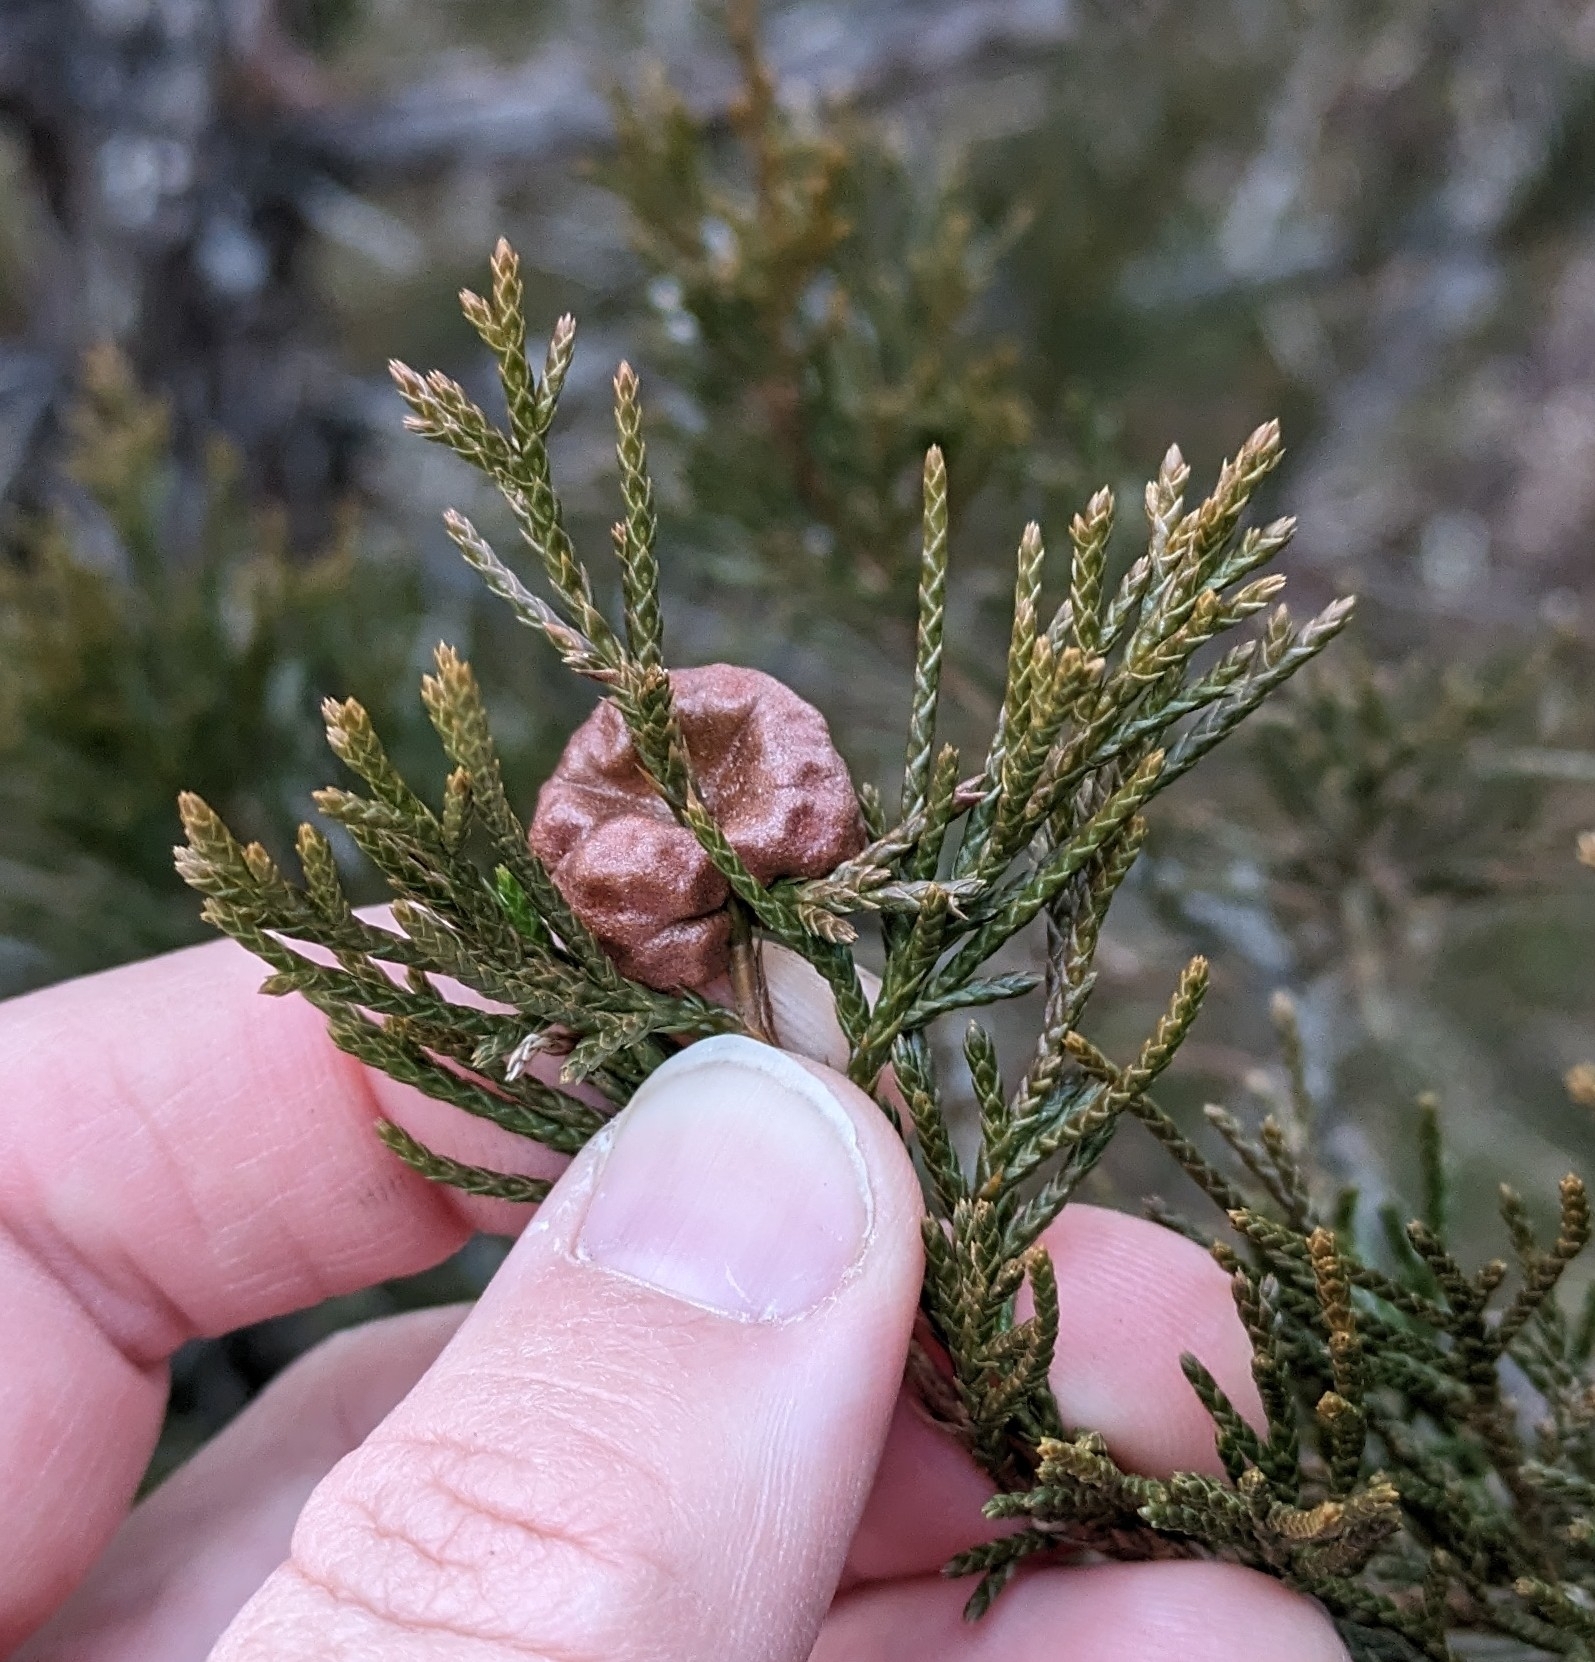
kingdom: Fungi
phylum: Basidiomycota
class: Pucciniomycetes
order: Pucciniales
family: Gymnosporangiaceae
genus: Gymnosporangium
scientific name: Gymnosporangium juniperi-virginianae
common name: Juniper-apple rust
